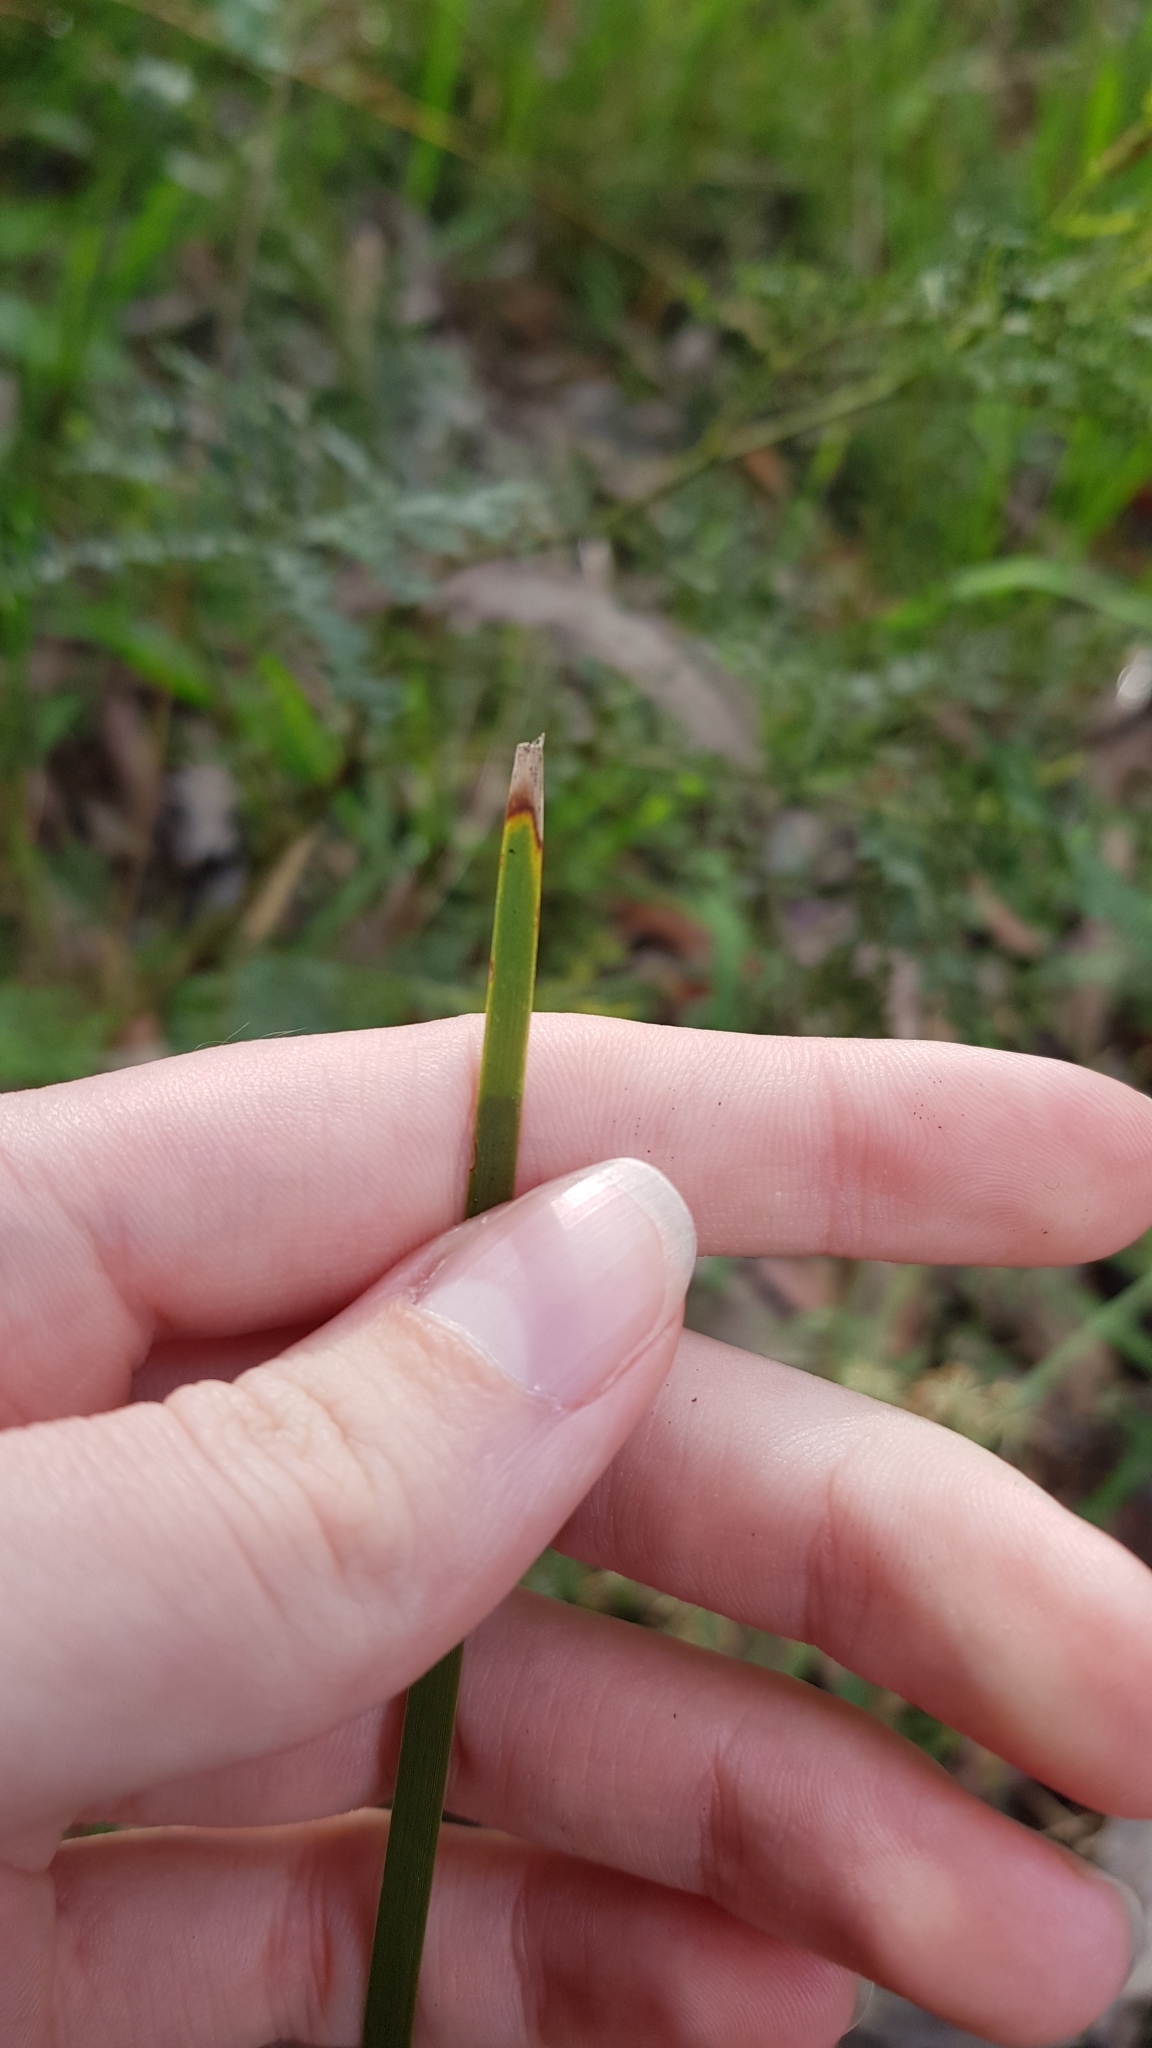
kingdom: Plantae
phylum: Tracheophyta
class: Liliopsida
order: Asparagales
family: Asparagaceae
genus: Lomandra
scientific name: Lomandra multiflora
